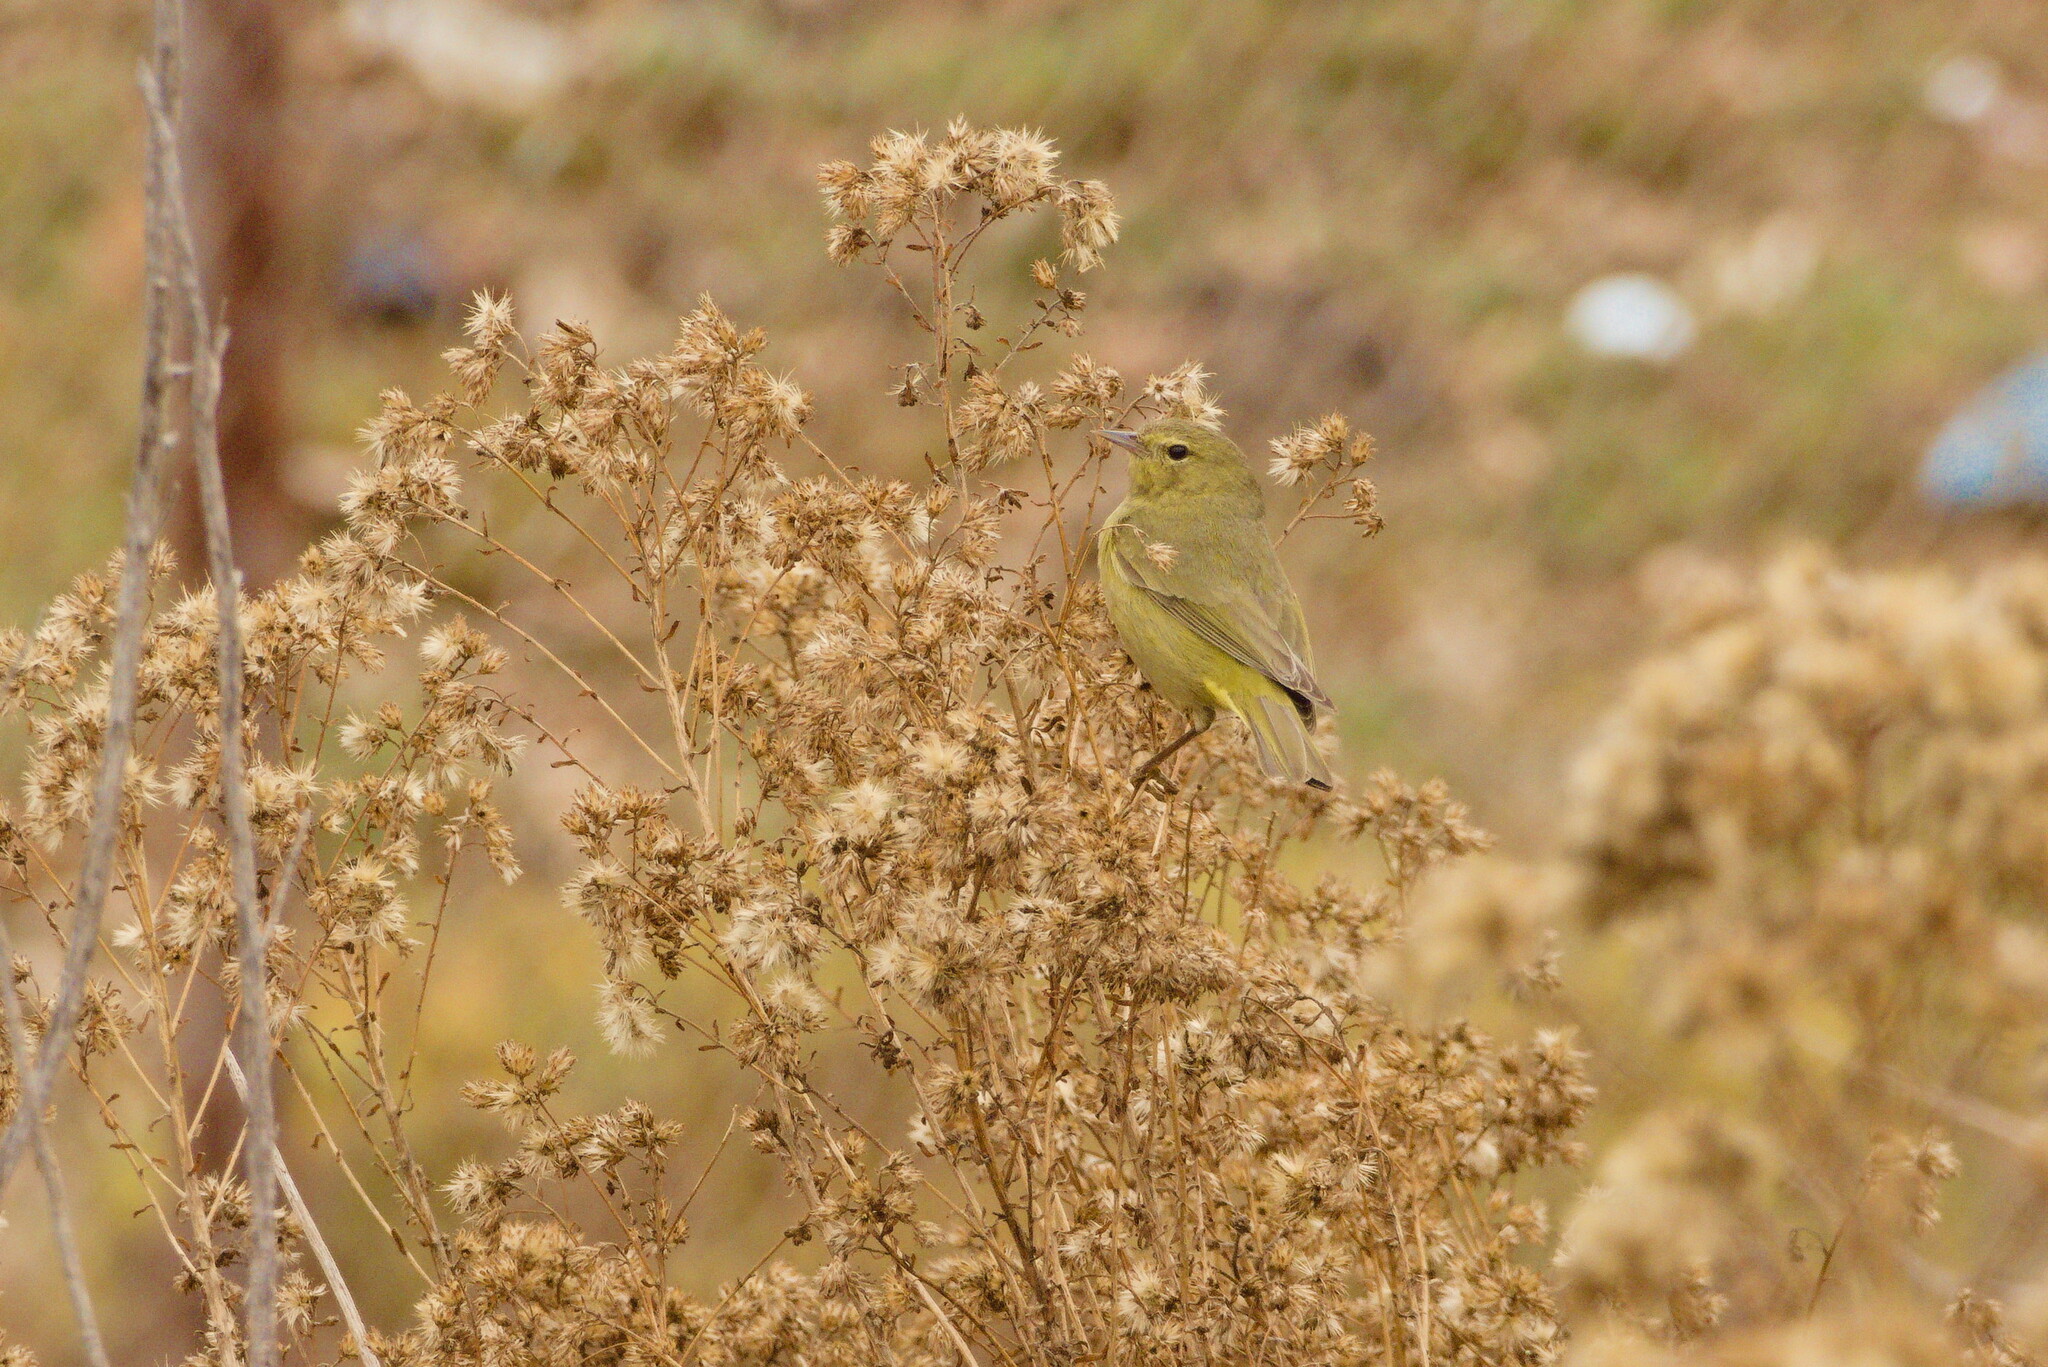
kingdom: Animalia
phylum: Chordata
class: Aves
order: Passeriformes
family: Parulidae
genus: Leiothlypis
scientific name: Leiothlypis celata
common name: Orange-crowned warbler
